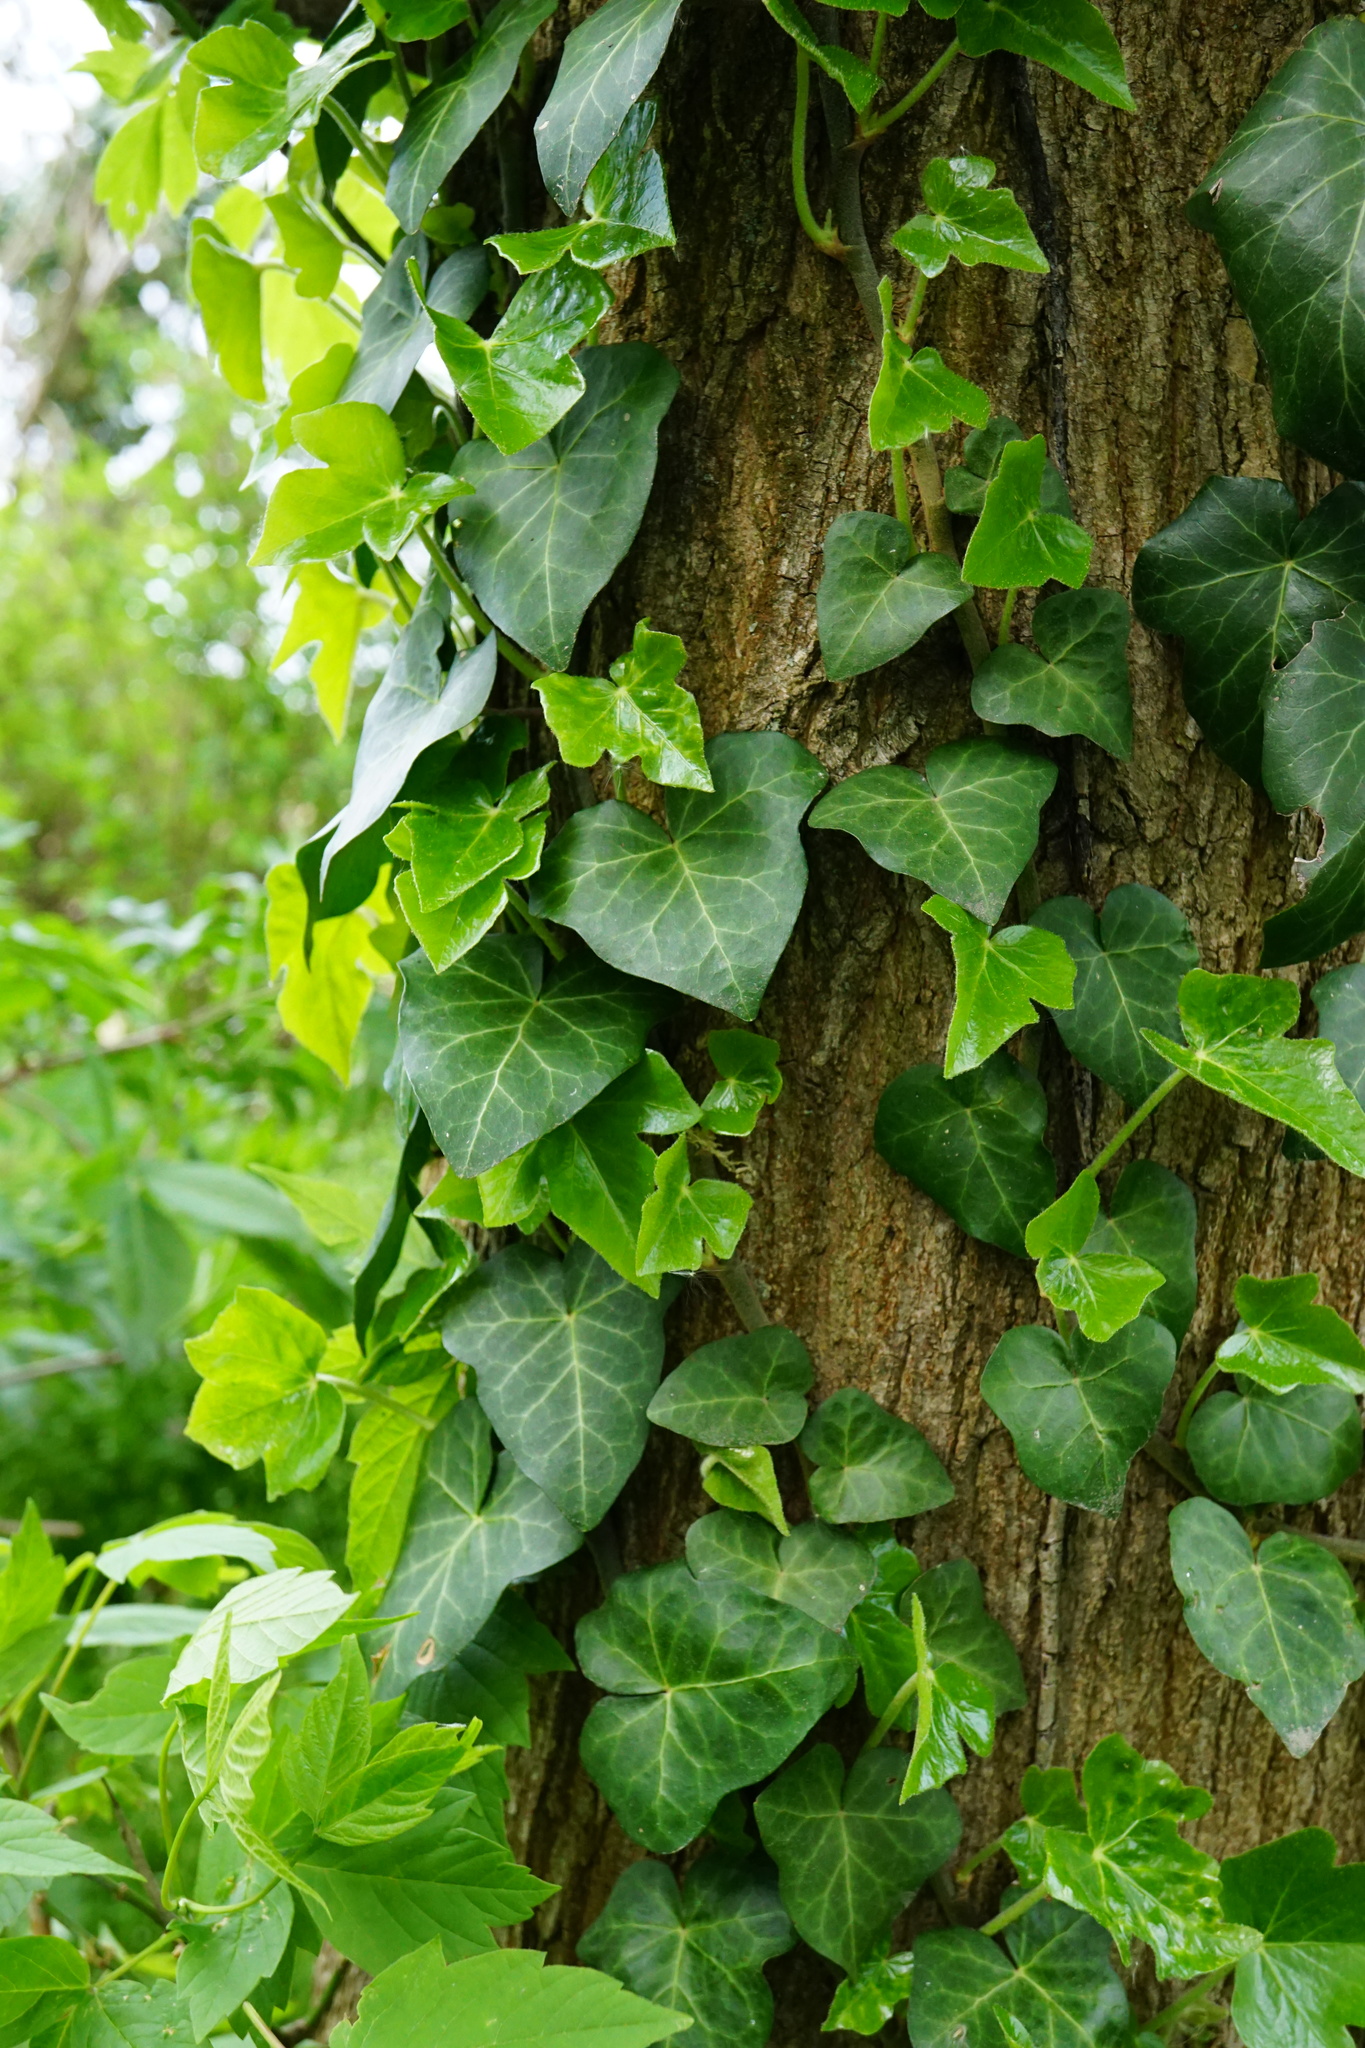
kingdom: Plantae
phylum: Tracheophyta
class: Magnoliopsida
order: Apiales
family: Araliaceae
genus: Hedera
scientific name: Hedera helix
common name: Ivy
